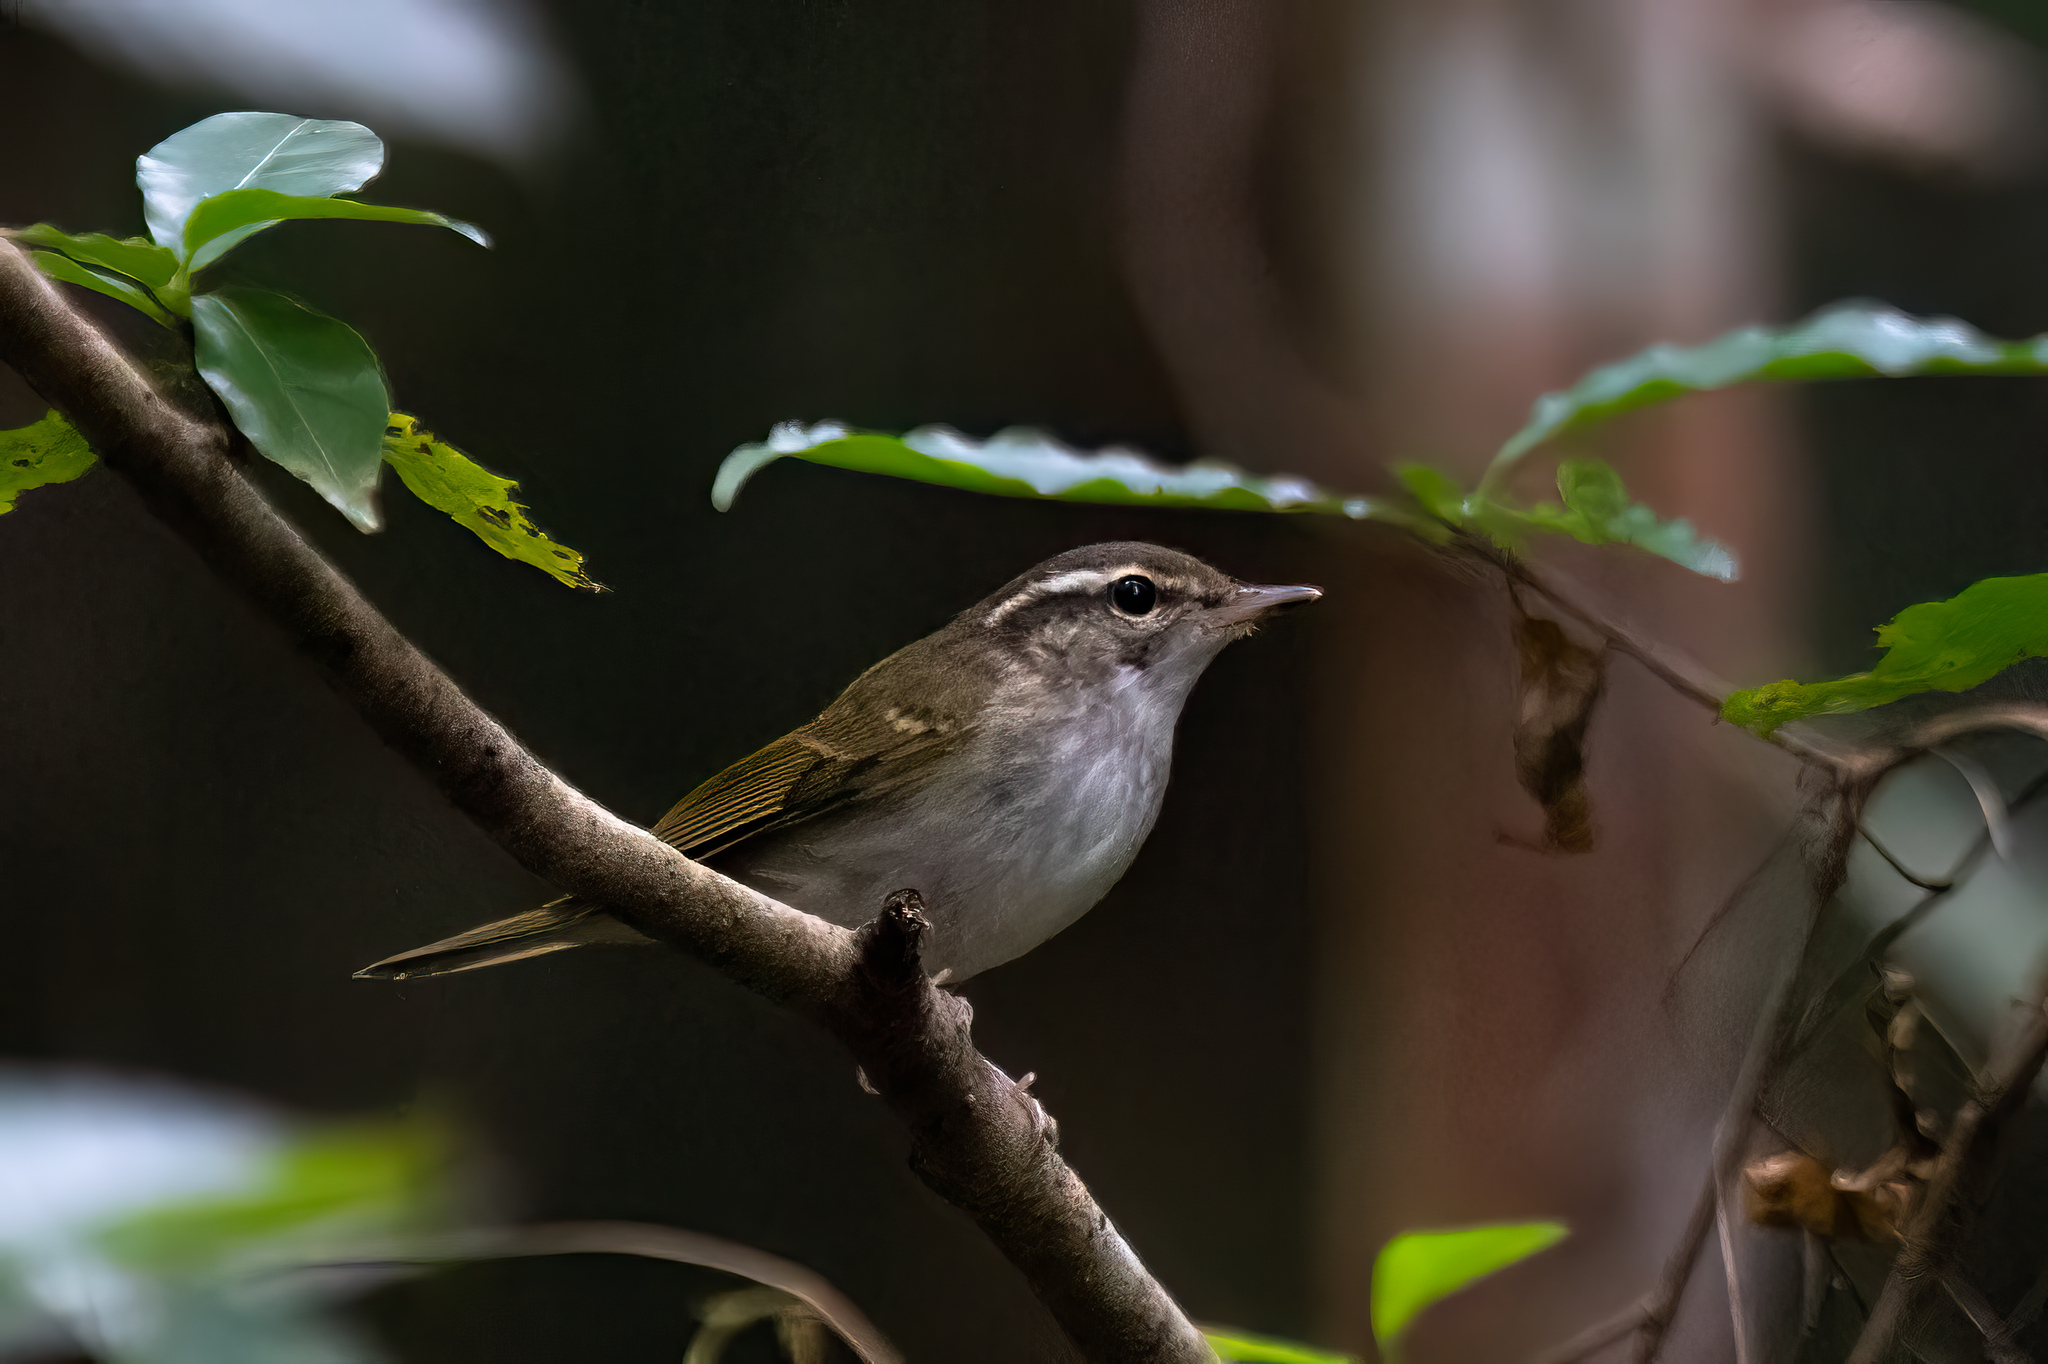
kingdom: Animalia
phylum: Chordata
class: Aves
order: Passeriformes
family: Phylloscopidae
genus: Phylloscopus
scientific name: Phylloscopus tenellipes
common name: Pale-legged leaf warbler
